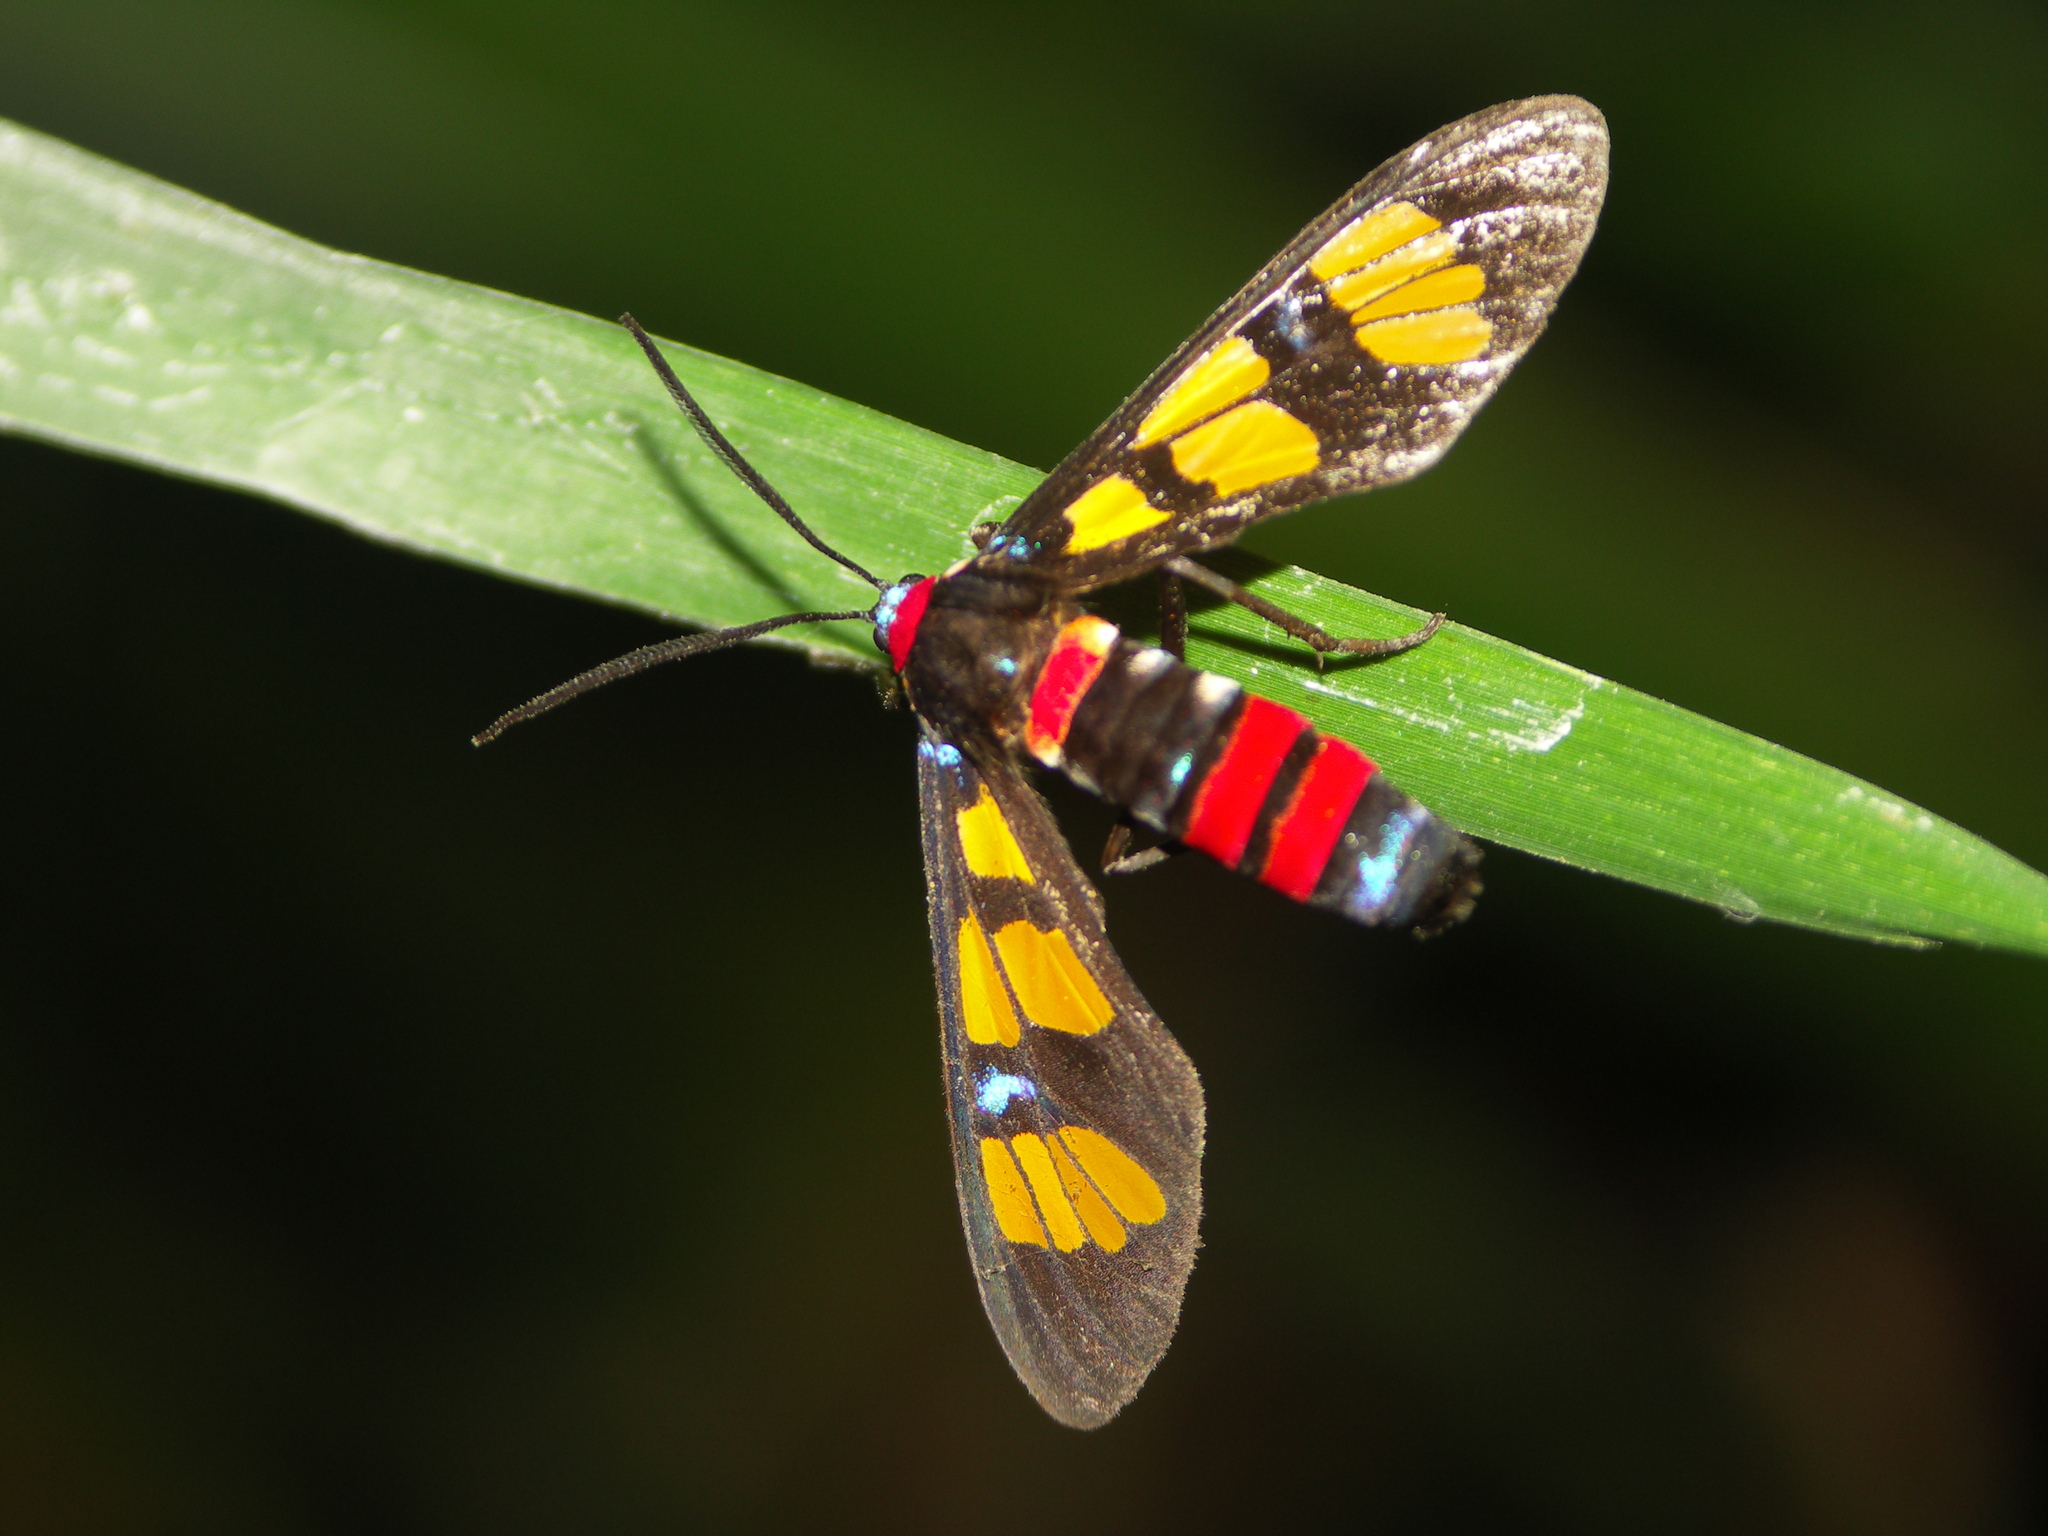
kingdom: Animalia
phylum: Arthropoda
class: Insecta
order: Lepidoptera
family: Erebidae
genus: Euchromia
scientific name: Euchromia polymena
